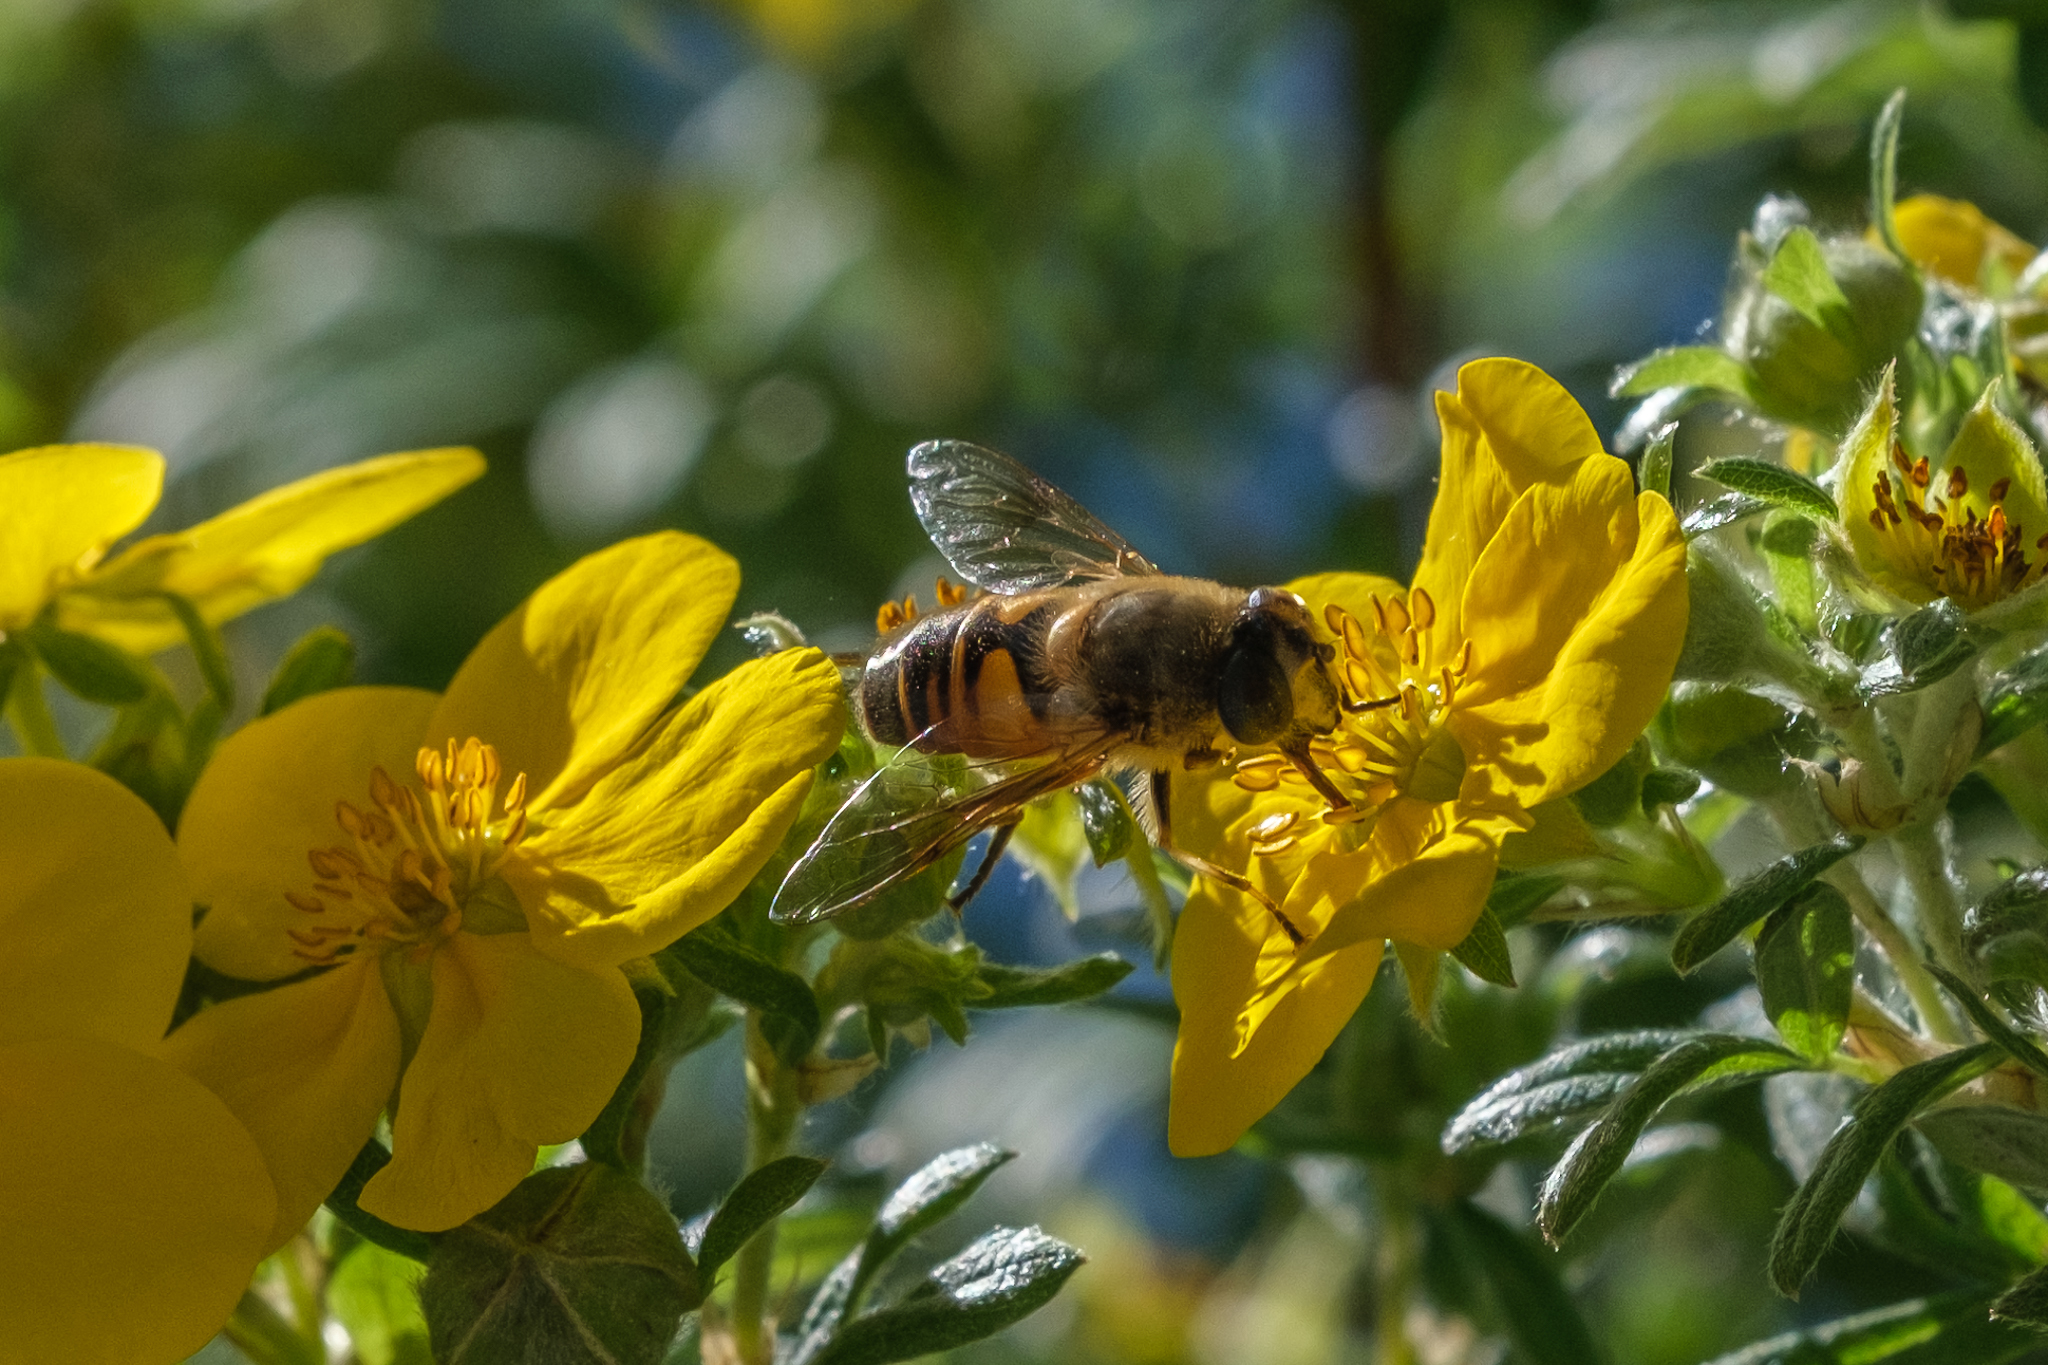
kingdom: Animalia
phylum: Arthropoda
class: Insecta
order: Diptera
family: Syrphidae
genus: Eristalis
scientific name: Eristalis tenax
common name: Drone fly
